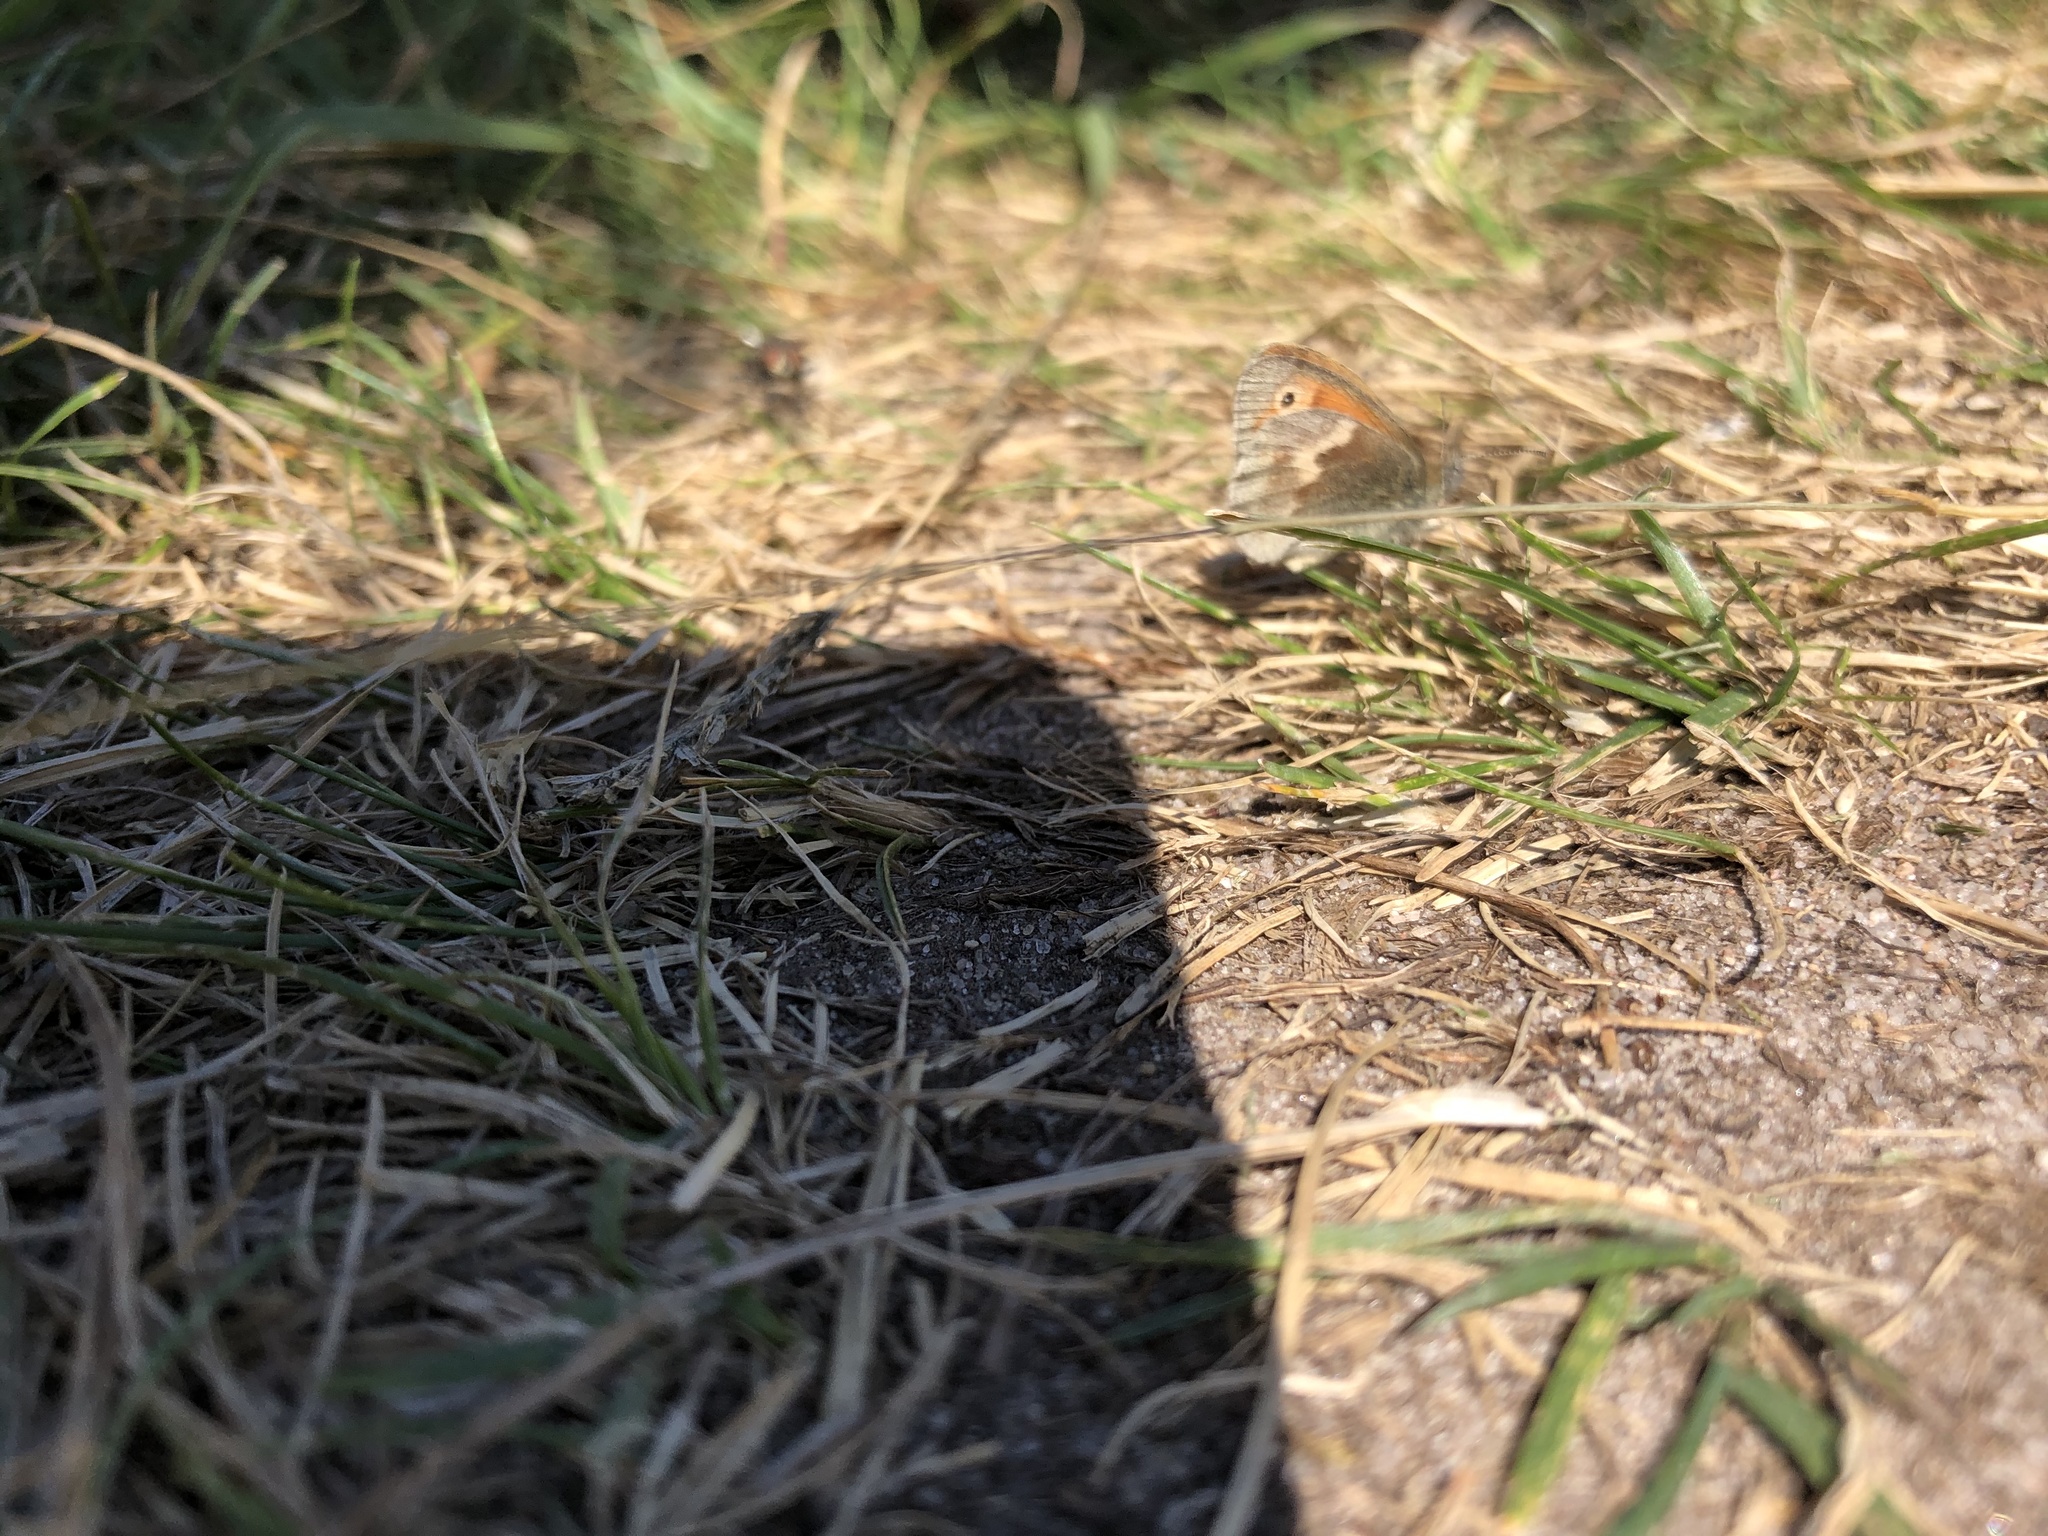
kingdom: Animalia
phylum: Arthropoda
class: Insecta
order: Lepidoptera
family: Nymphalidae
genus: Coenonympha
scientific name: Coenonympha pamphilus
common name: Small heath
